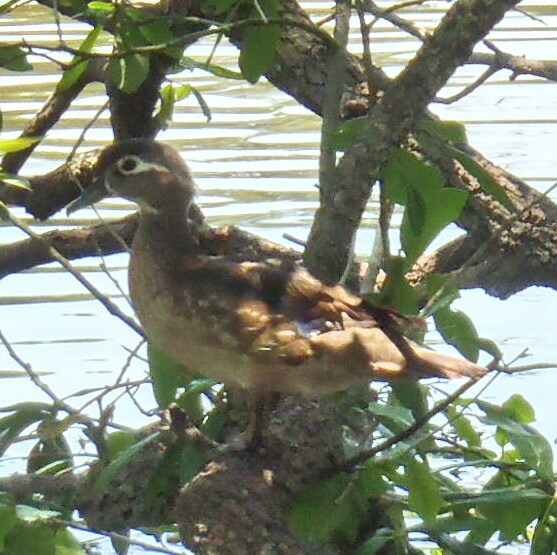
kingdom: Animalia
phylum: Chordata
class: Aves
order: Anseriformes
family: Anatidae
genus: Aix
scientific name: Aix sponsa
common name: Wood duck
